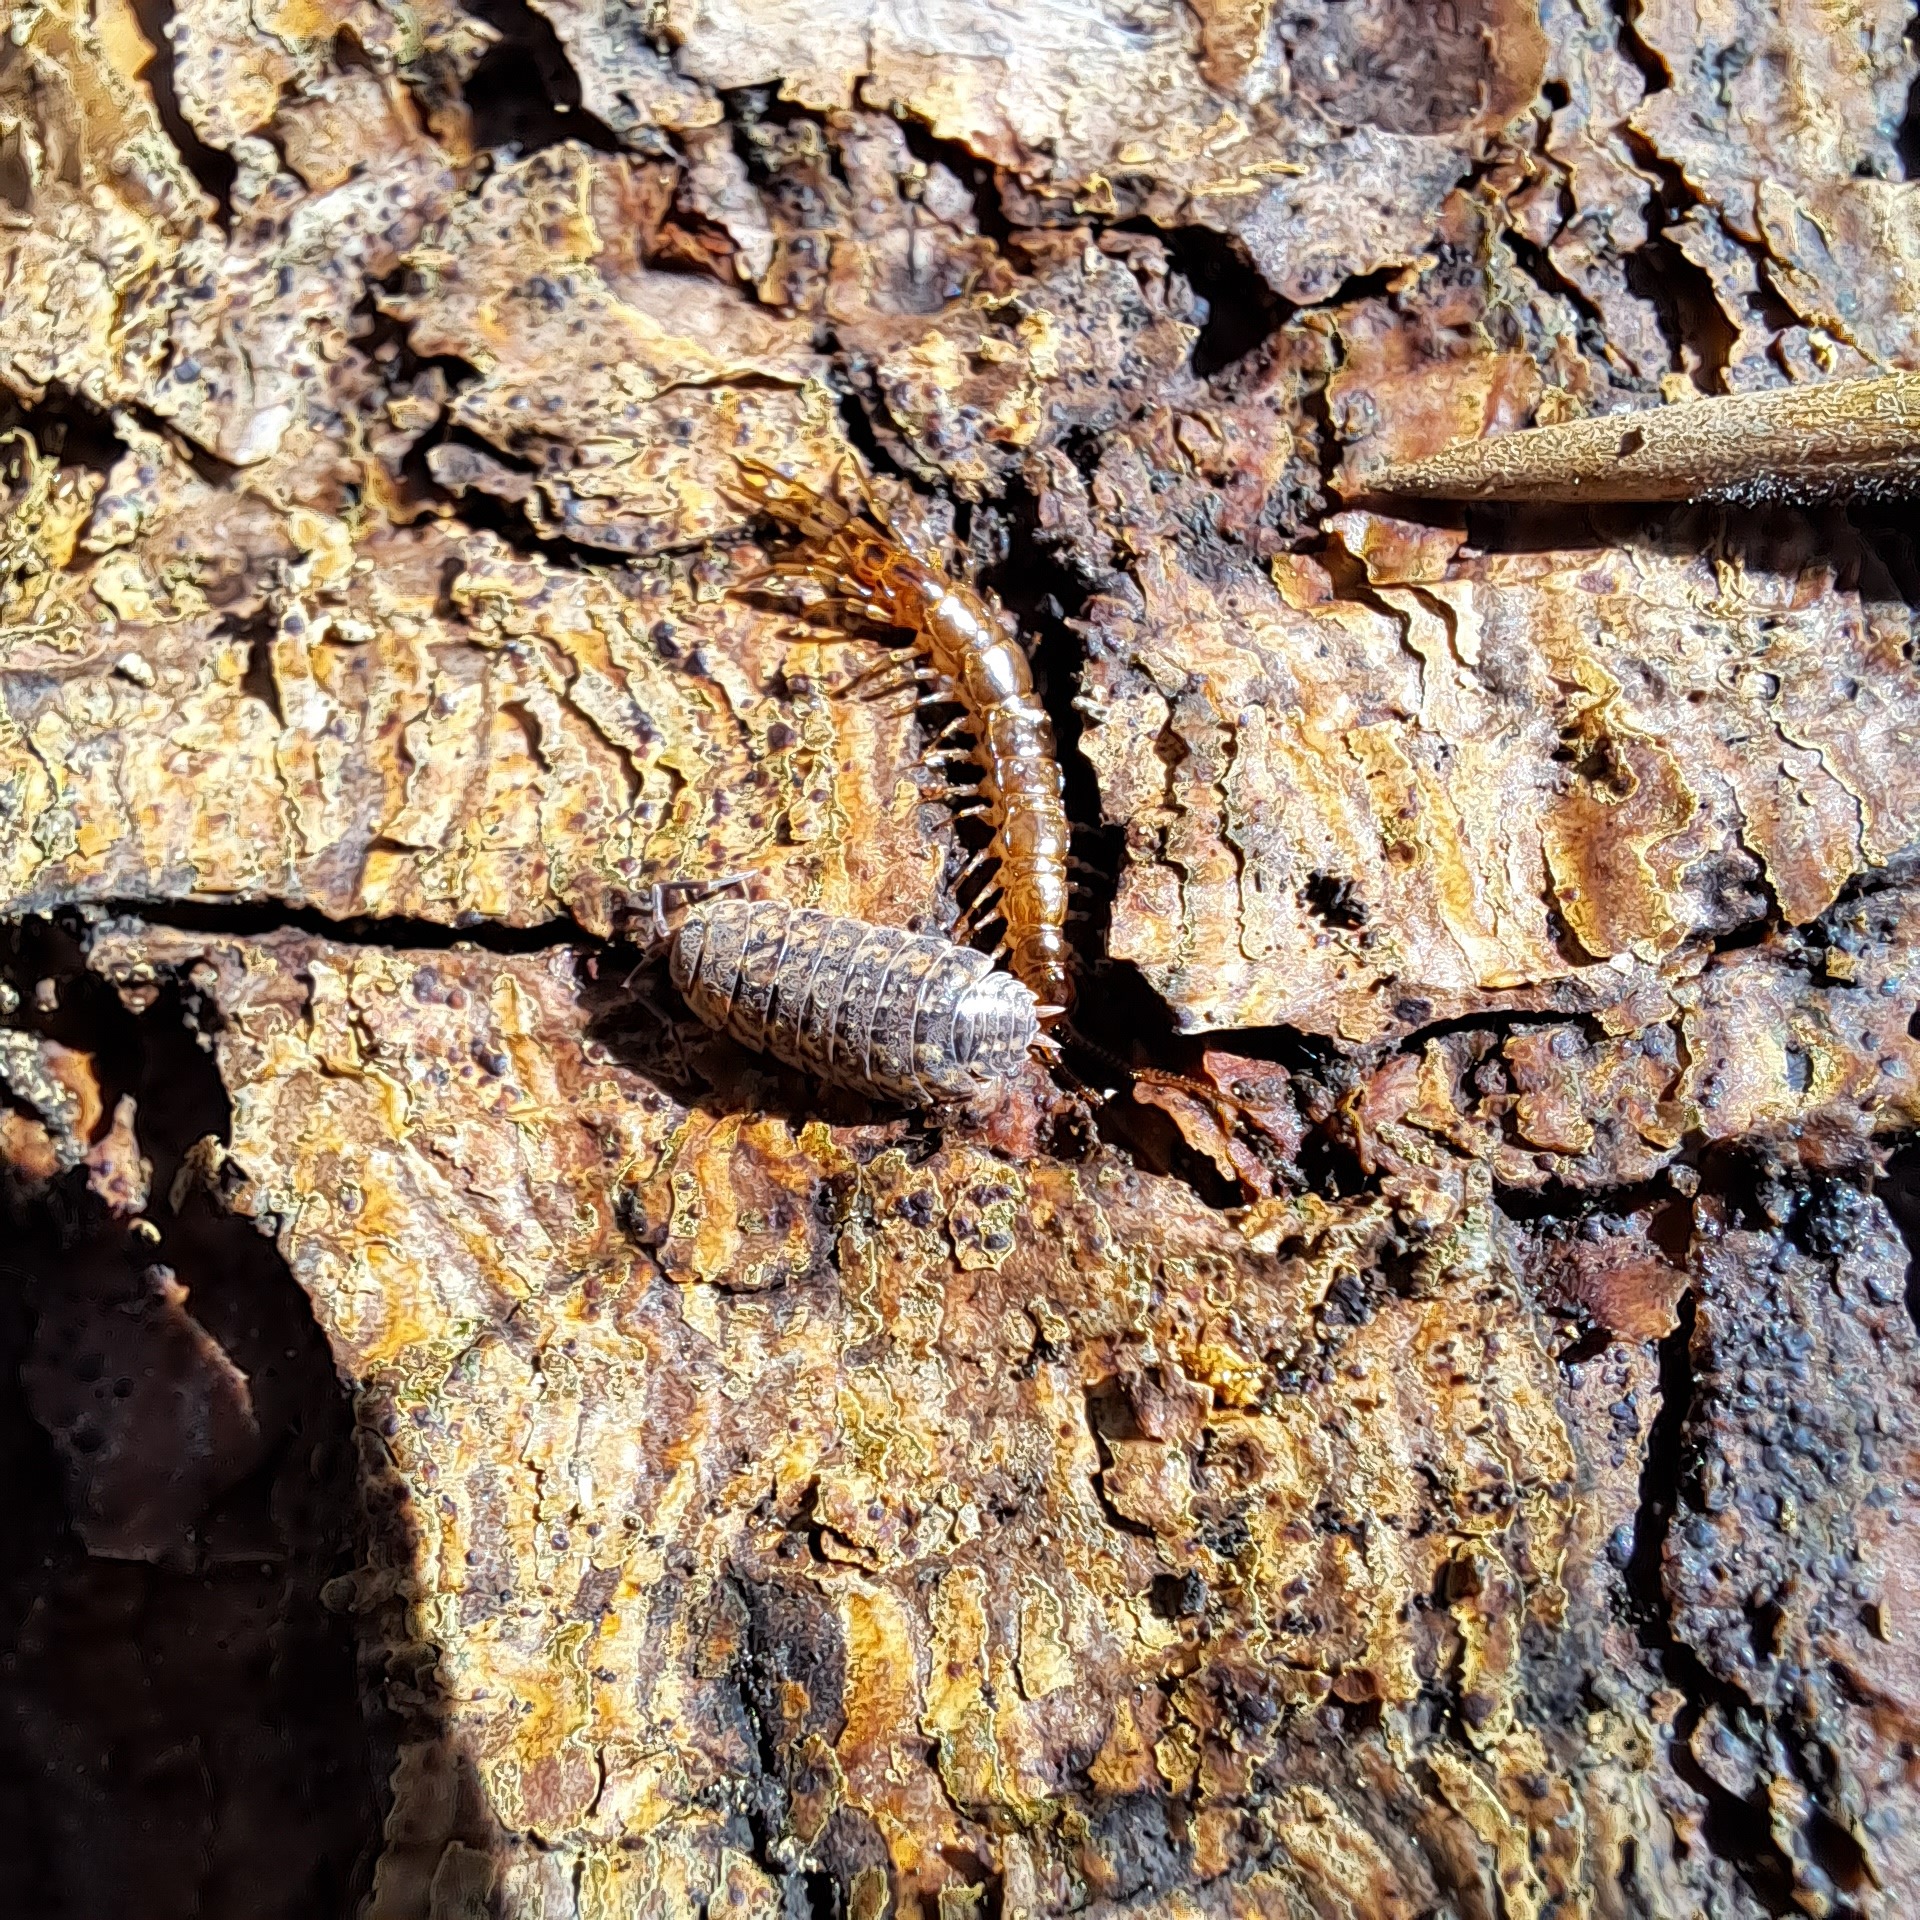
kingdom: Animalia
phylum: Arthropoda
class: Malacostraca
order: Isopoda
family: Philosciidae
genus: Lepidoniscus
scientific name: Lepidoniscus minutus
